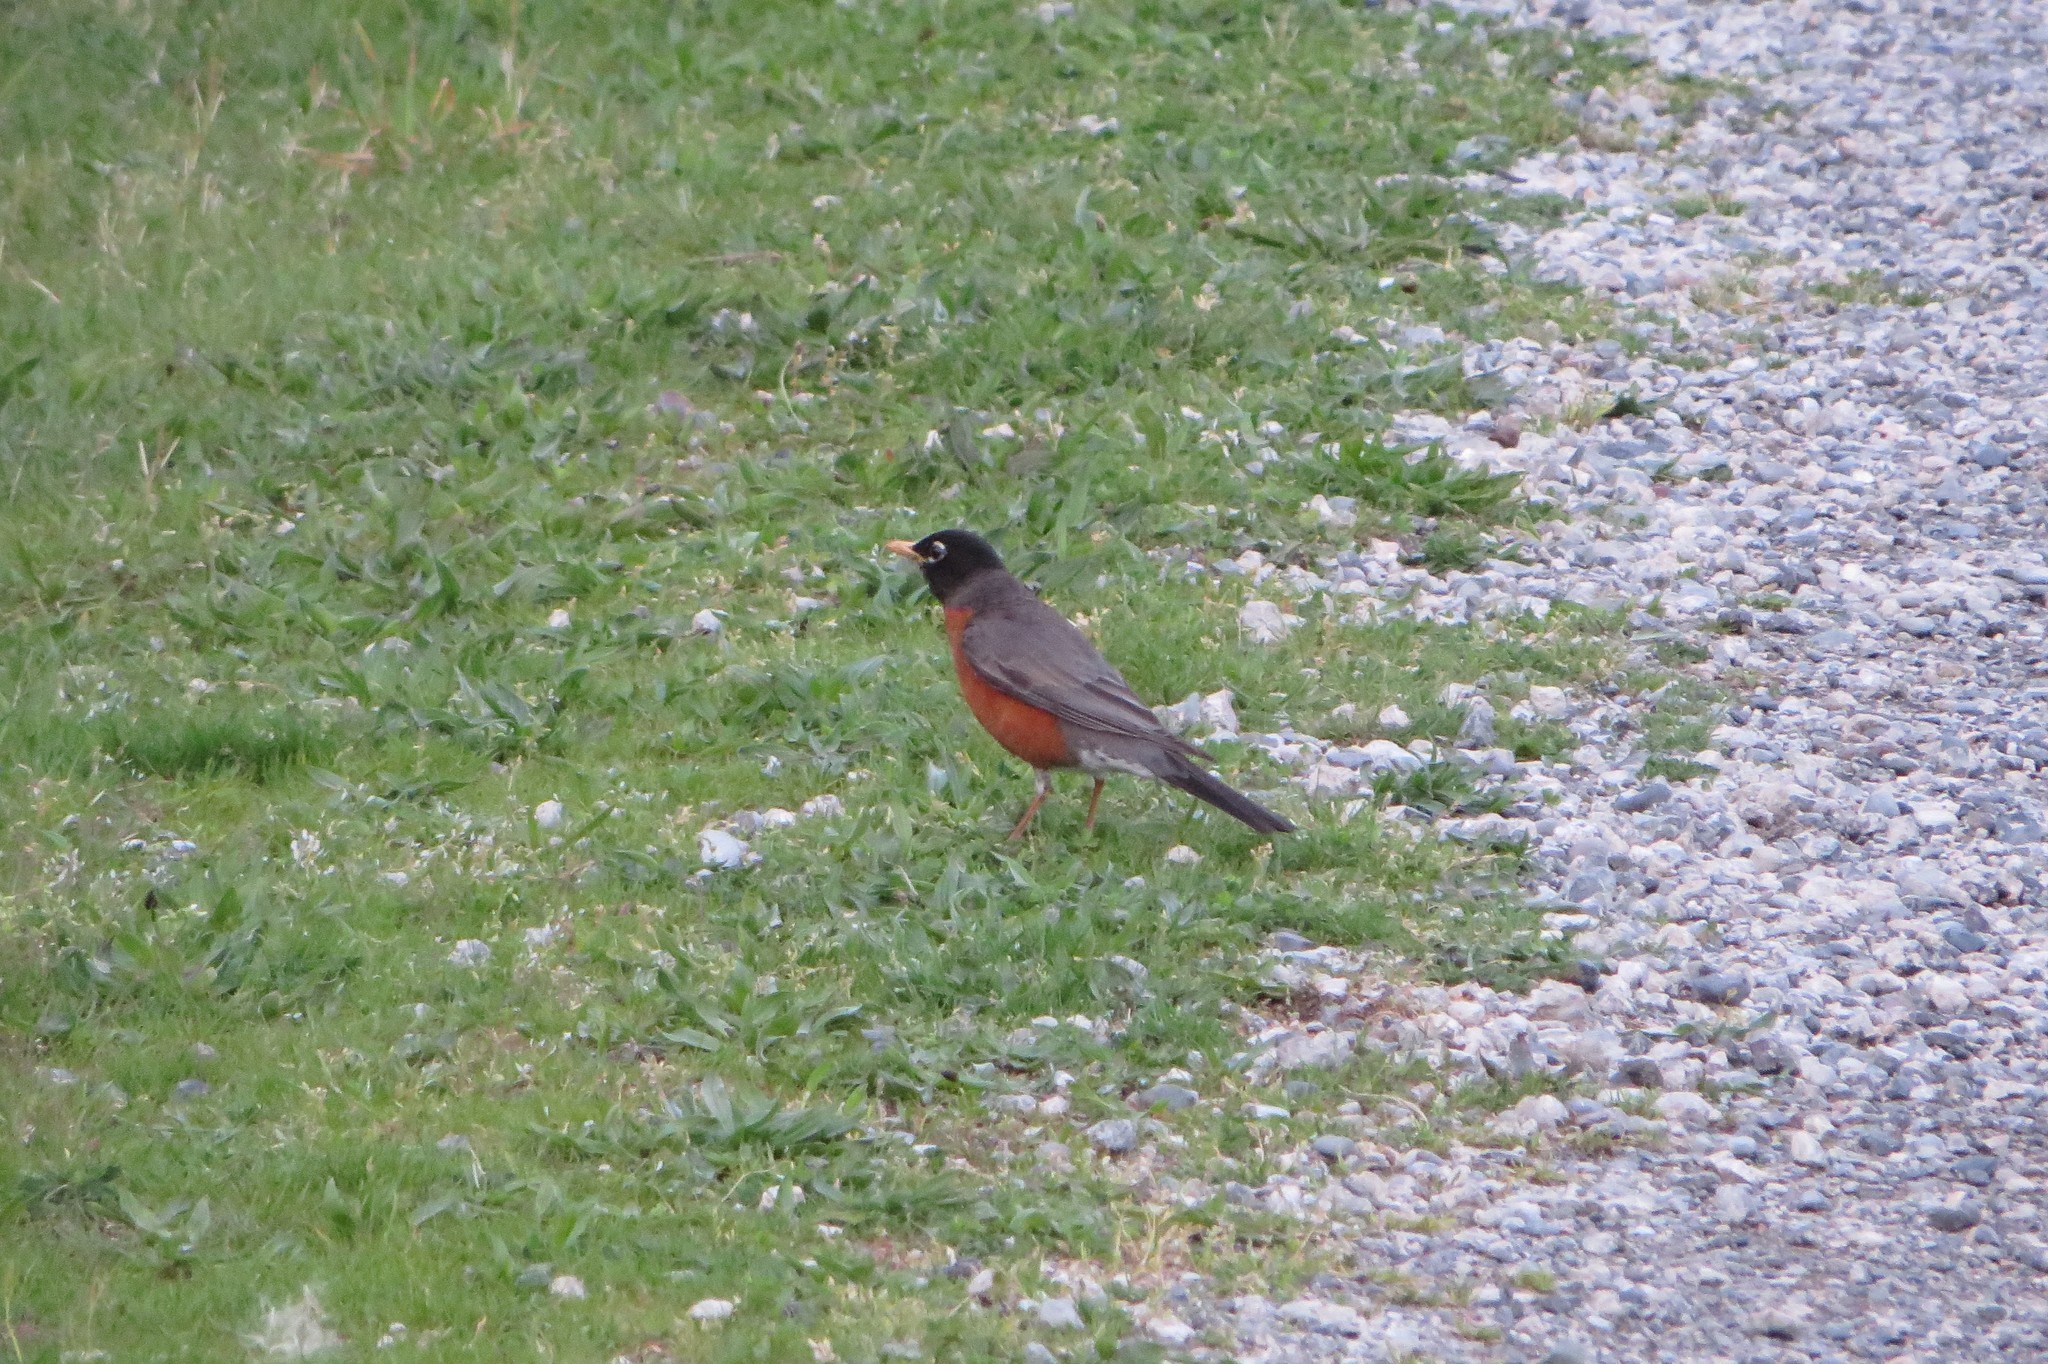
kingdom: Animalia
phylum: Chordata
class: Aves
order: Passeriformes
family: Turdidae
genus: Turdus
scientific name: Turdus migratorius
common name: American robin
